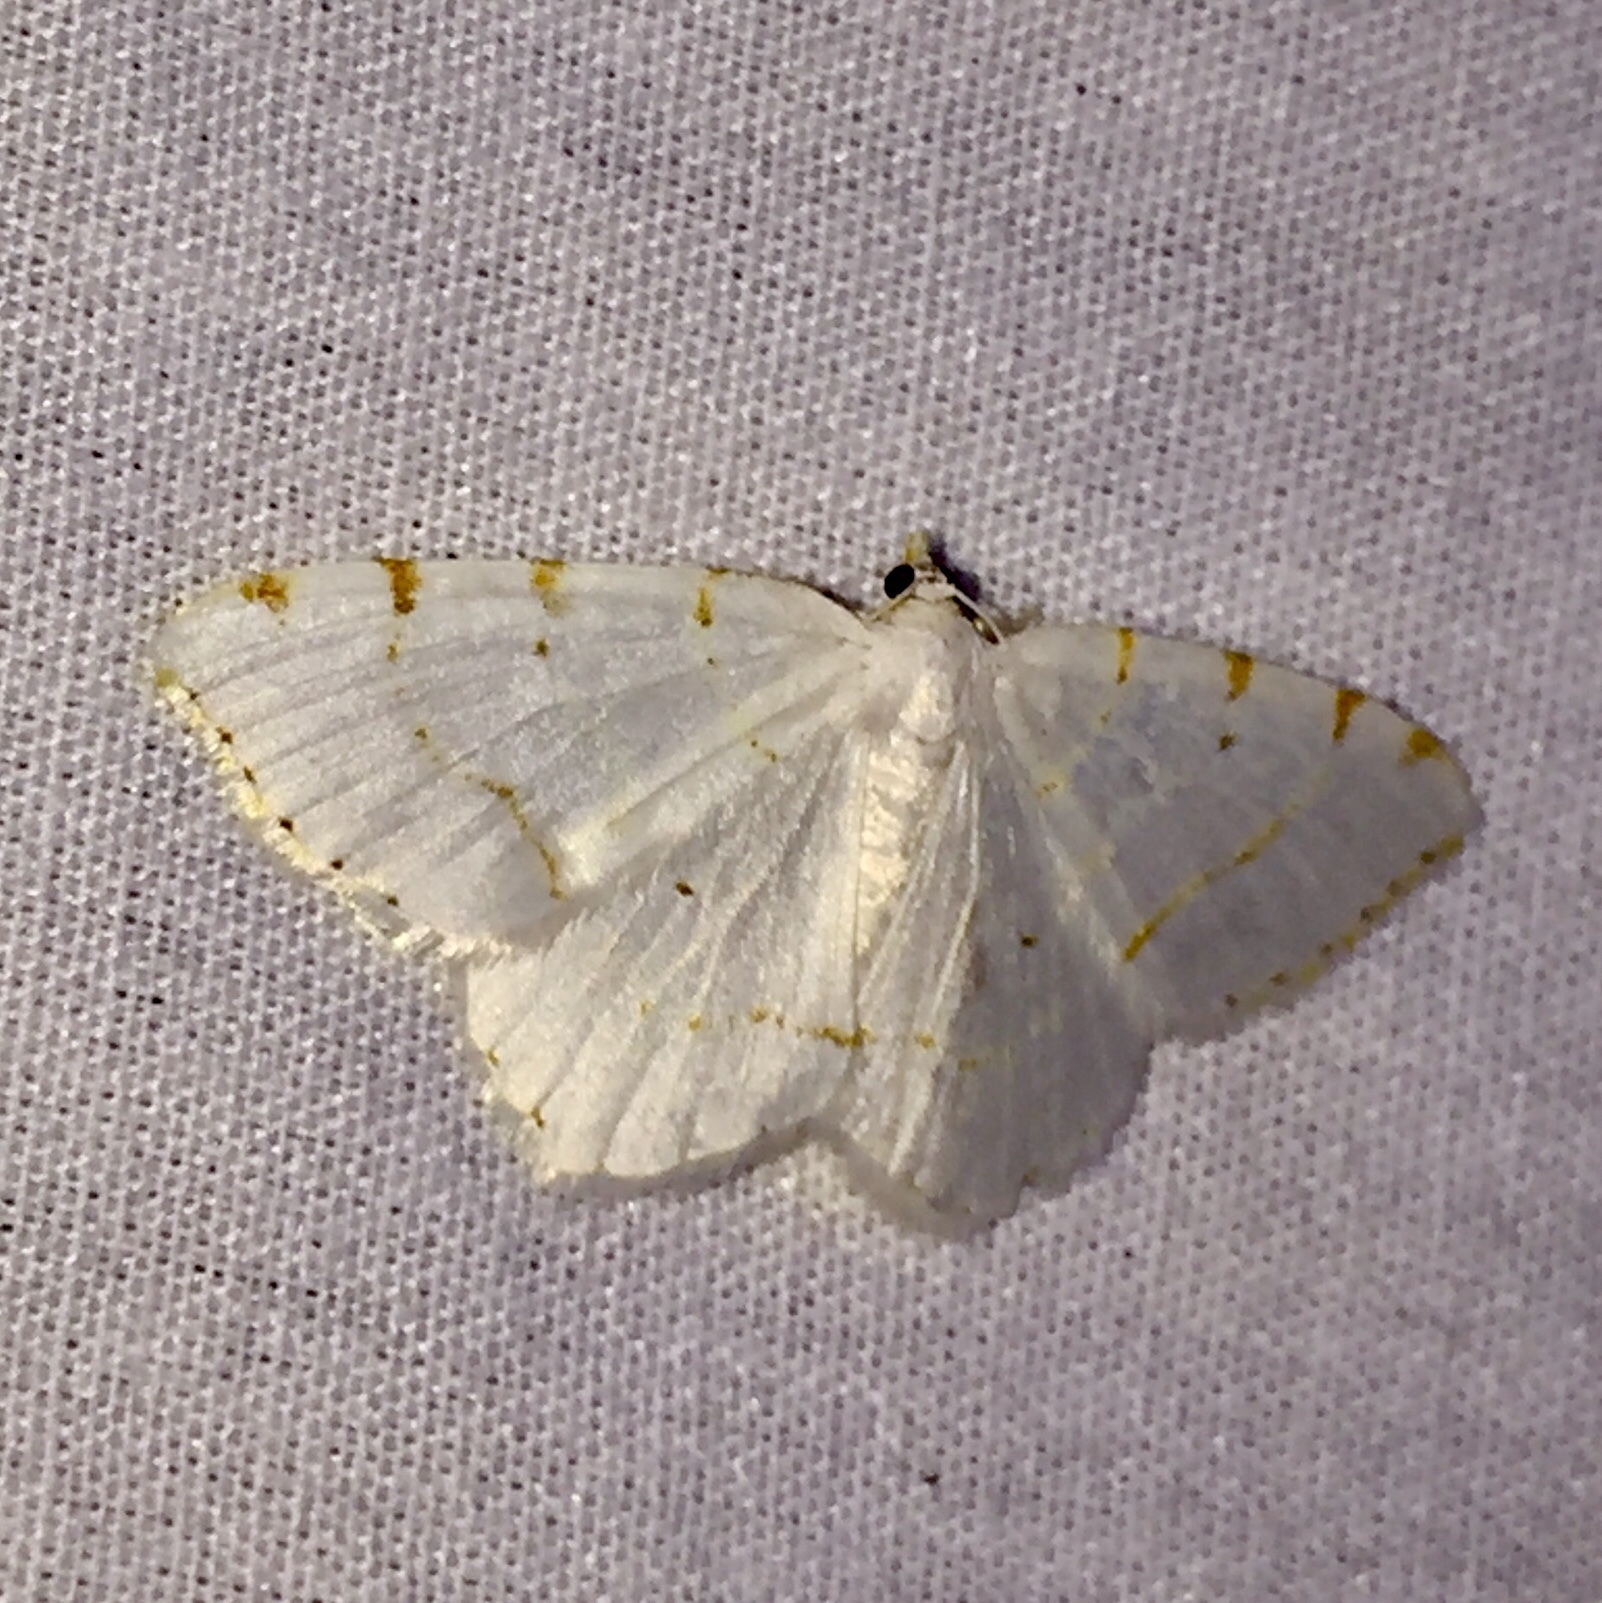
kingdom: Animalia
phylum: Arthropoda
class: Insecta
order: Lepidoptera
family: Geometridae
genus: Macaria
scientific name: Macaria pustularia
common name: Lesser maple spanworm moth
